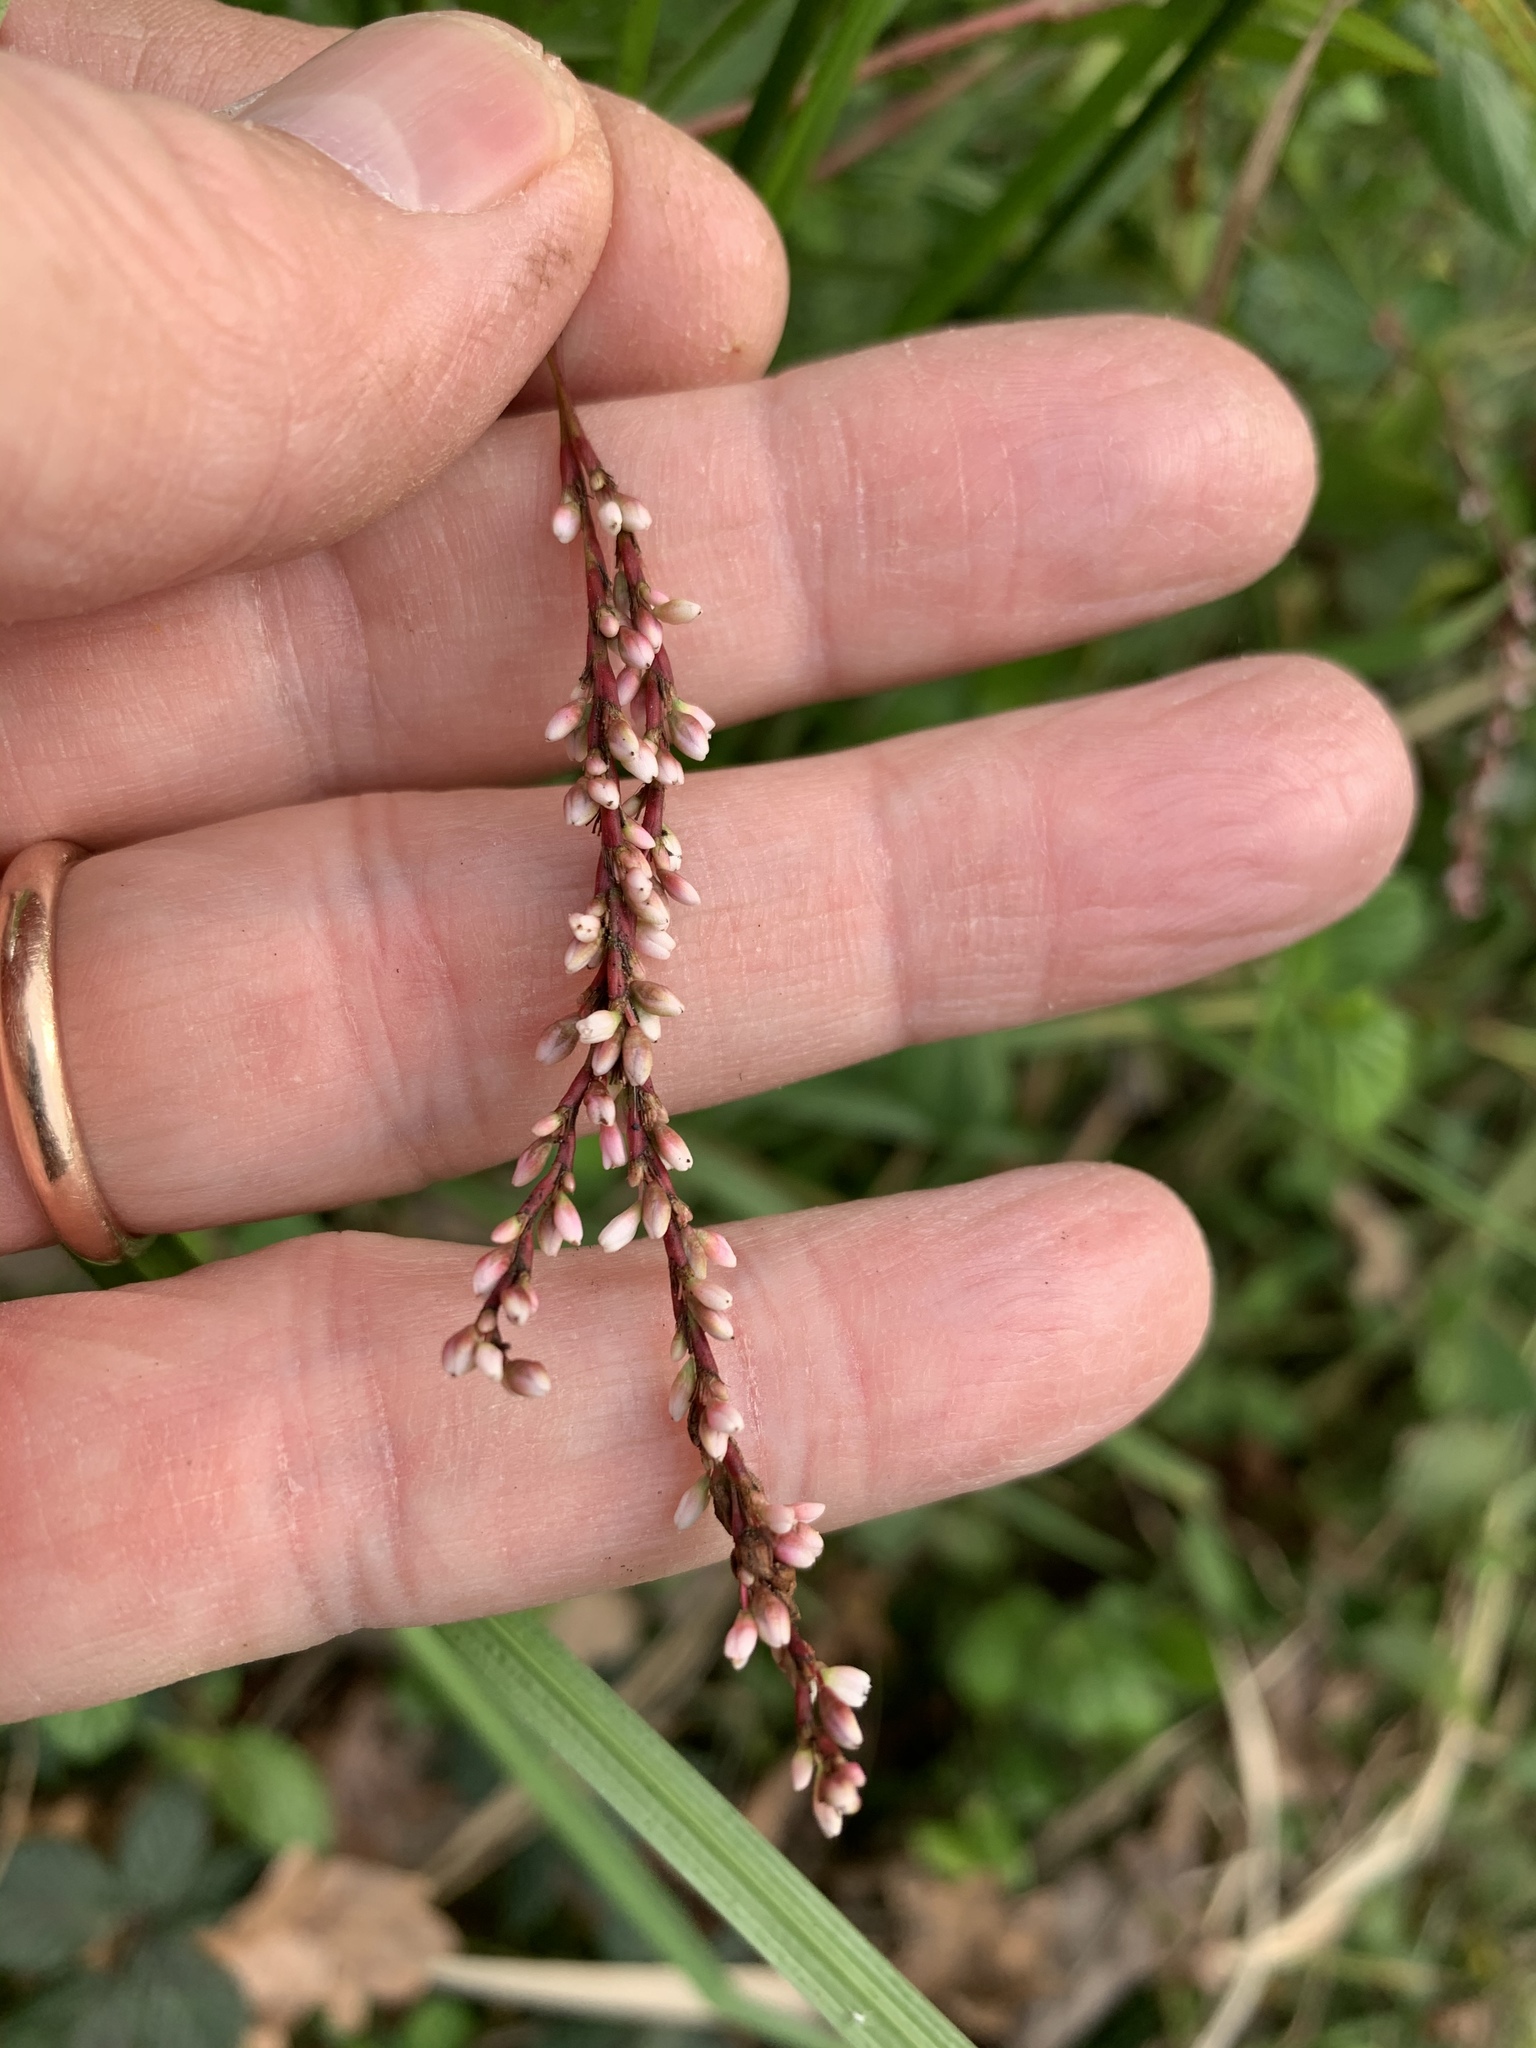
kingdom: Plantae
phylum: Tracheophyta
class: Magnoliopsida
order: Caryophyllales
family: Polygonaceae
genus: Persicaria
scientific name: Persicaria decipiens
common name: Willow-weed
